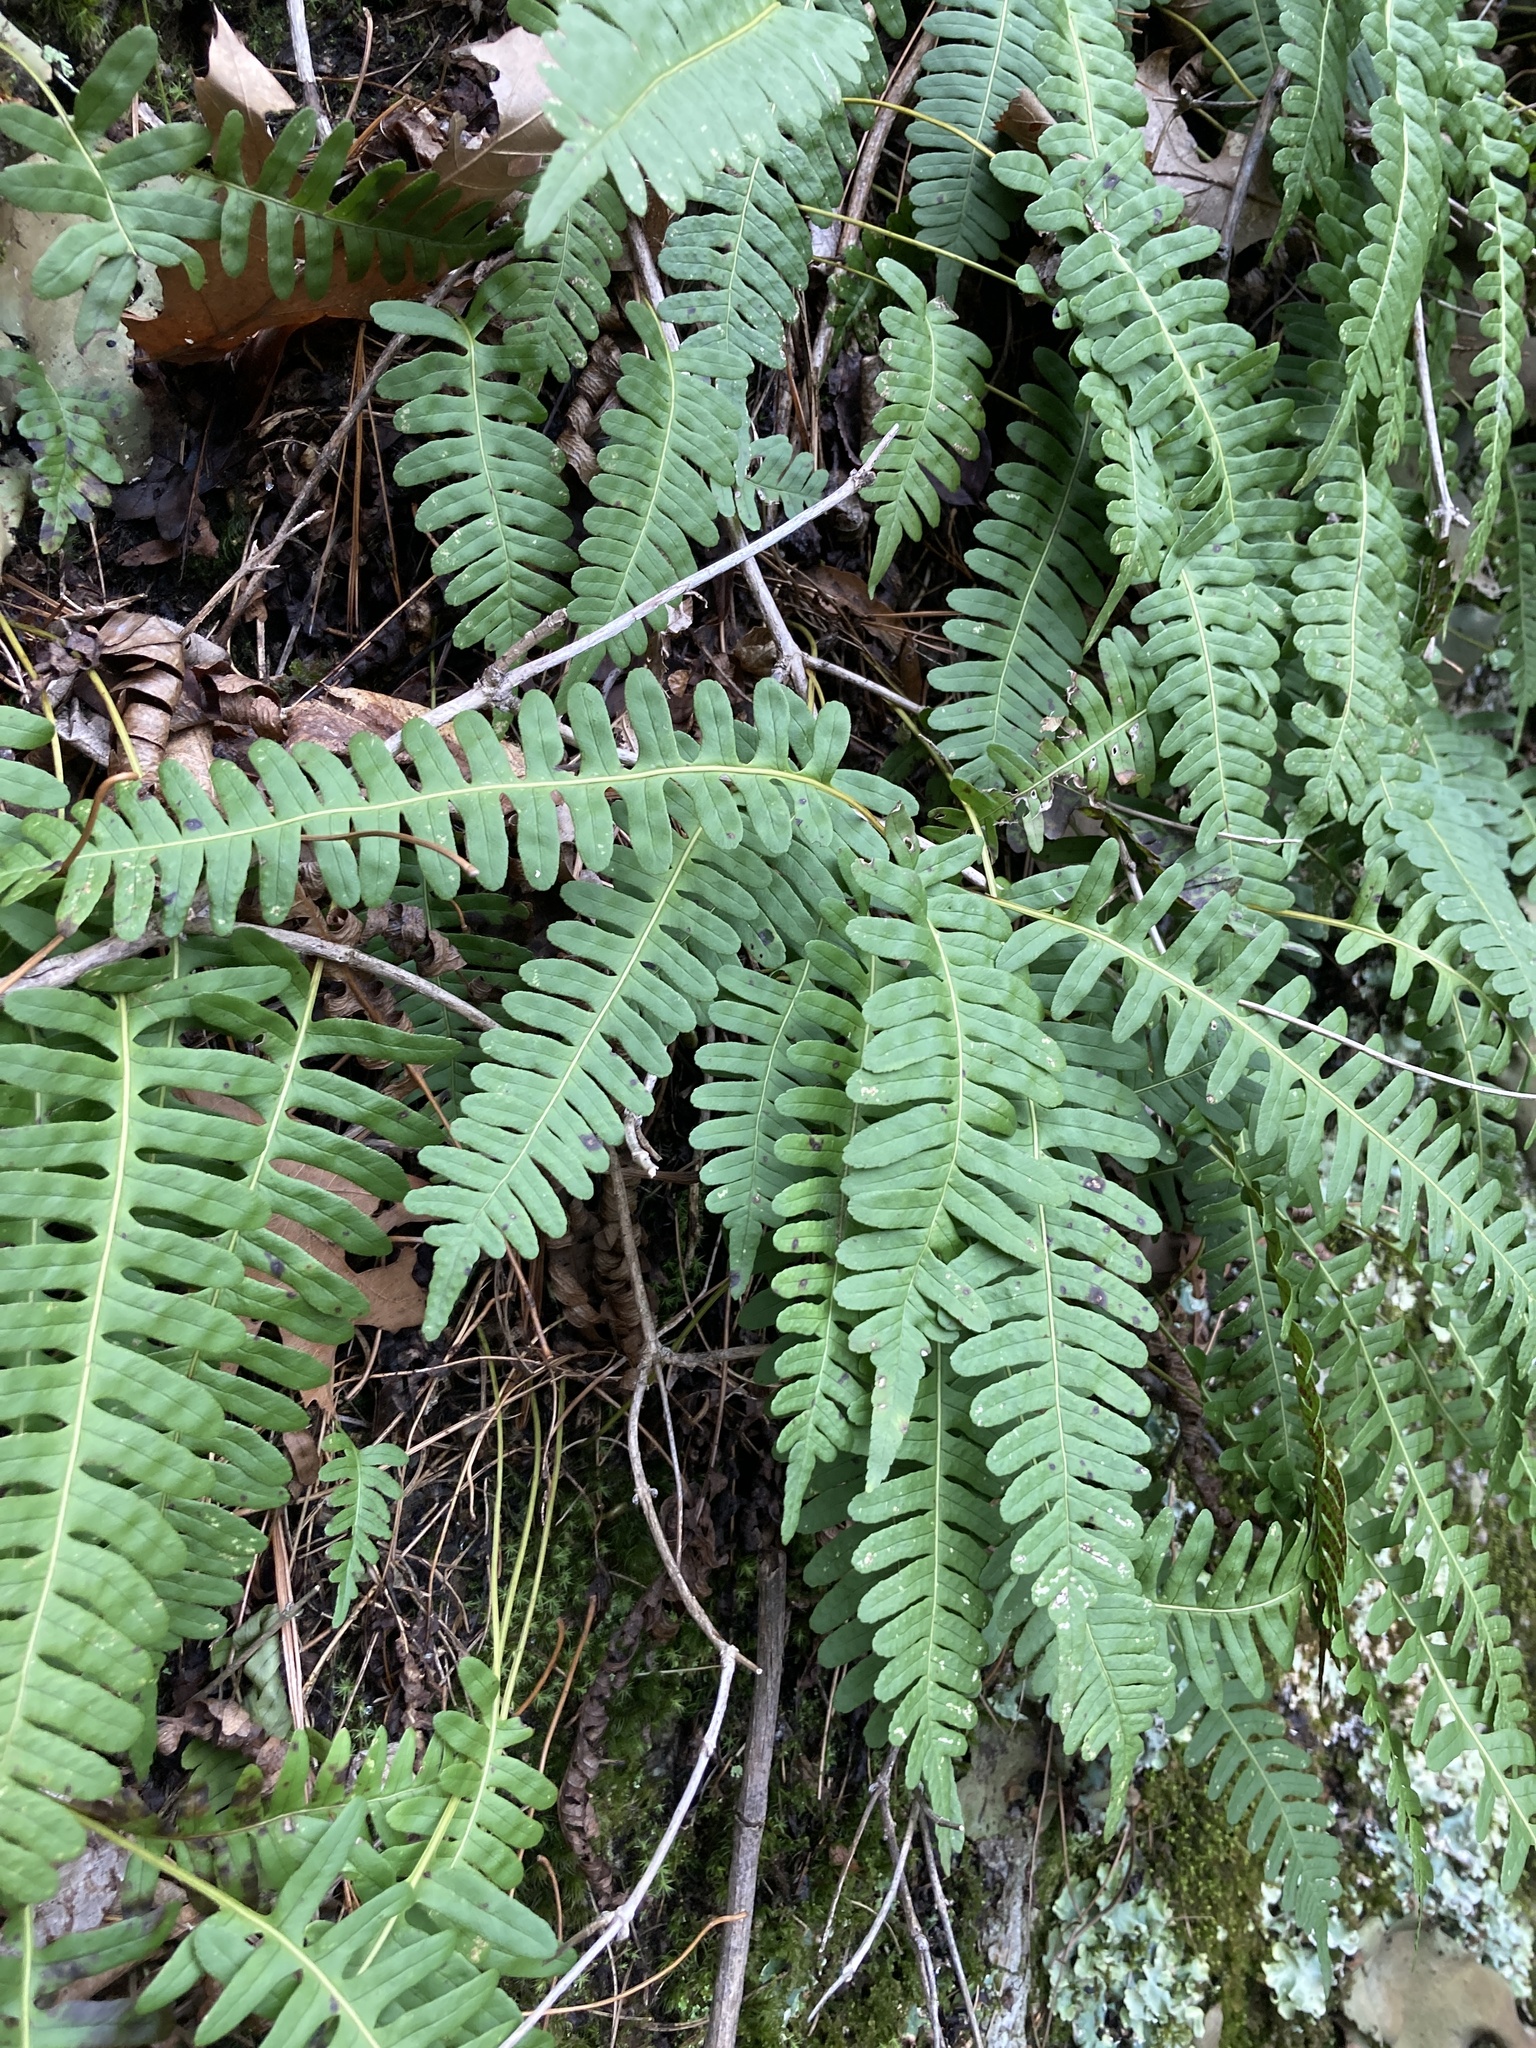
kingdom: Plantae
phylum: Tracheophyta
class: Polypodiopsida
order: Polypodiales
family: Polypodiaceae
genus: Polypodium
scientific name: Polypodium virginianum
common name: American wall fern
